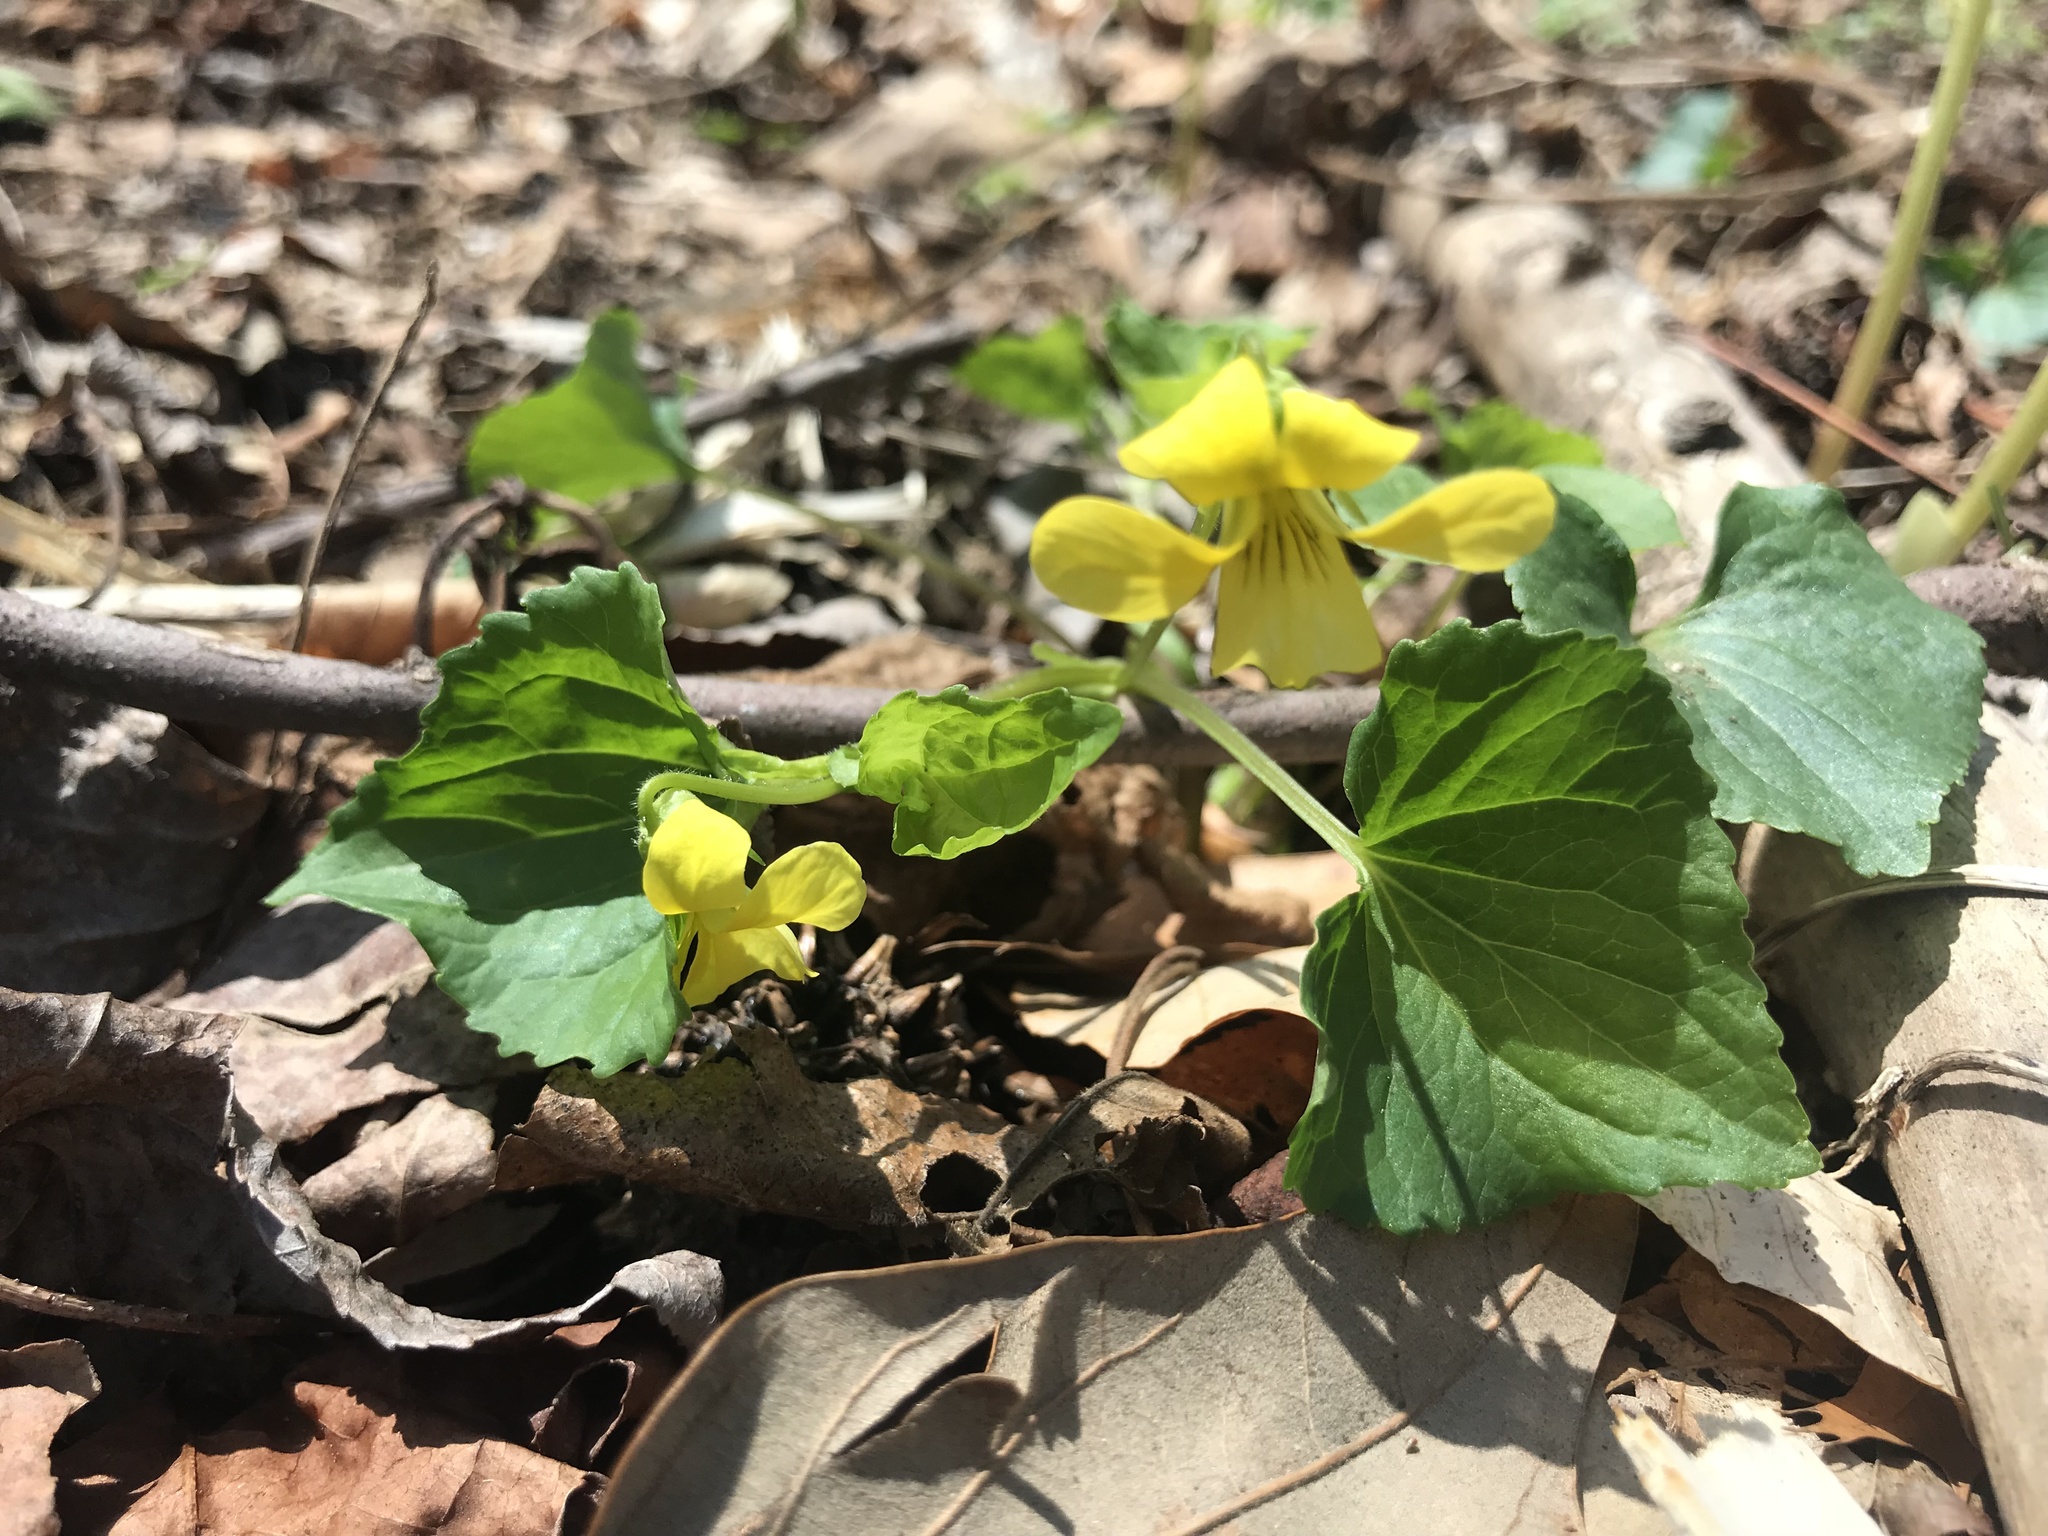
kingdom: Plantae
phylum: Tracheophyta
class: Magnoliopsida
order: Malpighiales
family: Violaceae
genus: Viola
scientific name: Viola eriocarpa
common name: Smooth yellow violet
